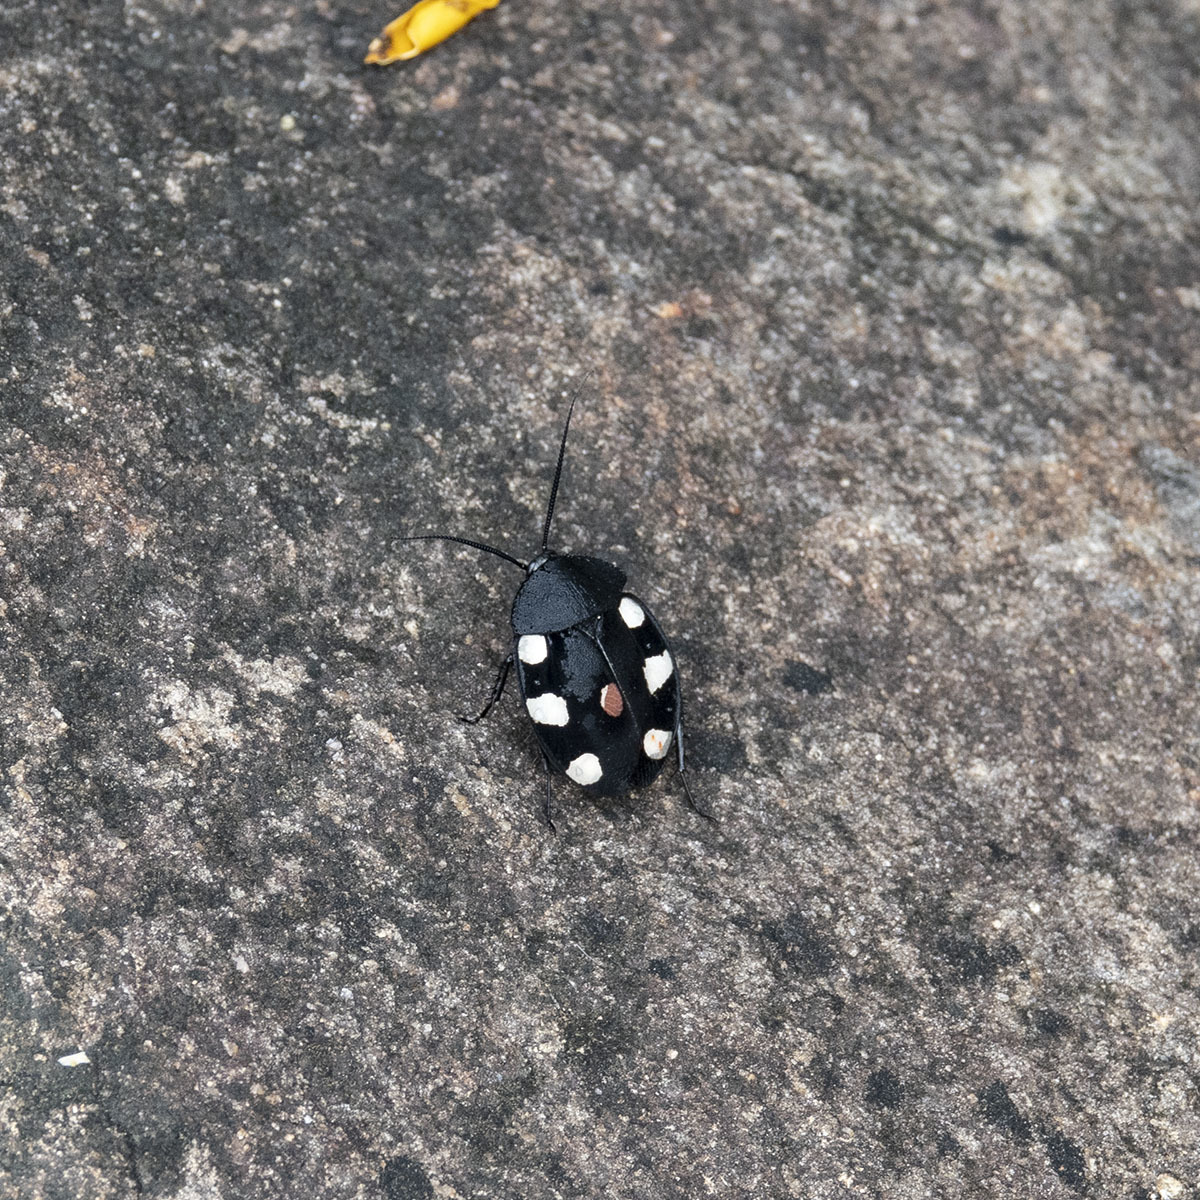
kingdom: Animalia
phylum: Arthropoda
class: Insecta
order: Blattodea
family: Corydiidae
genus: Therea
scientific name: Therea petiveriana
